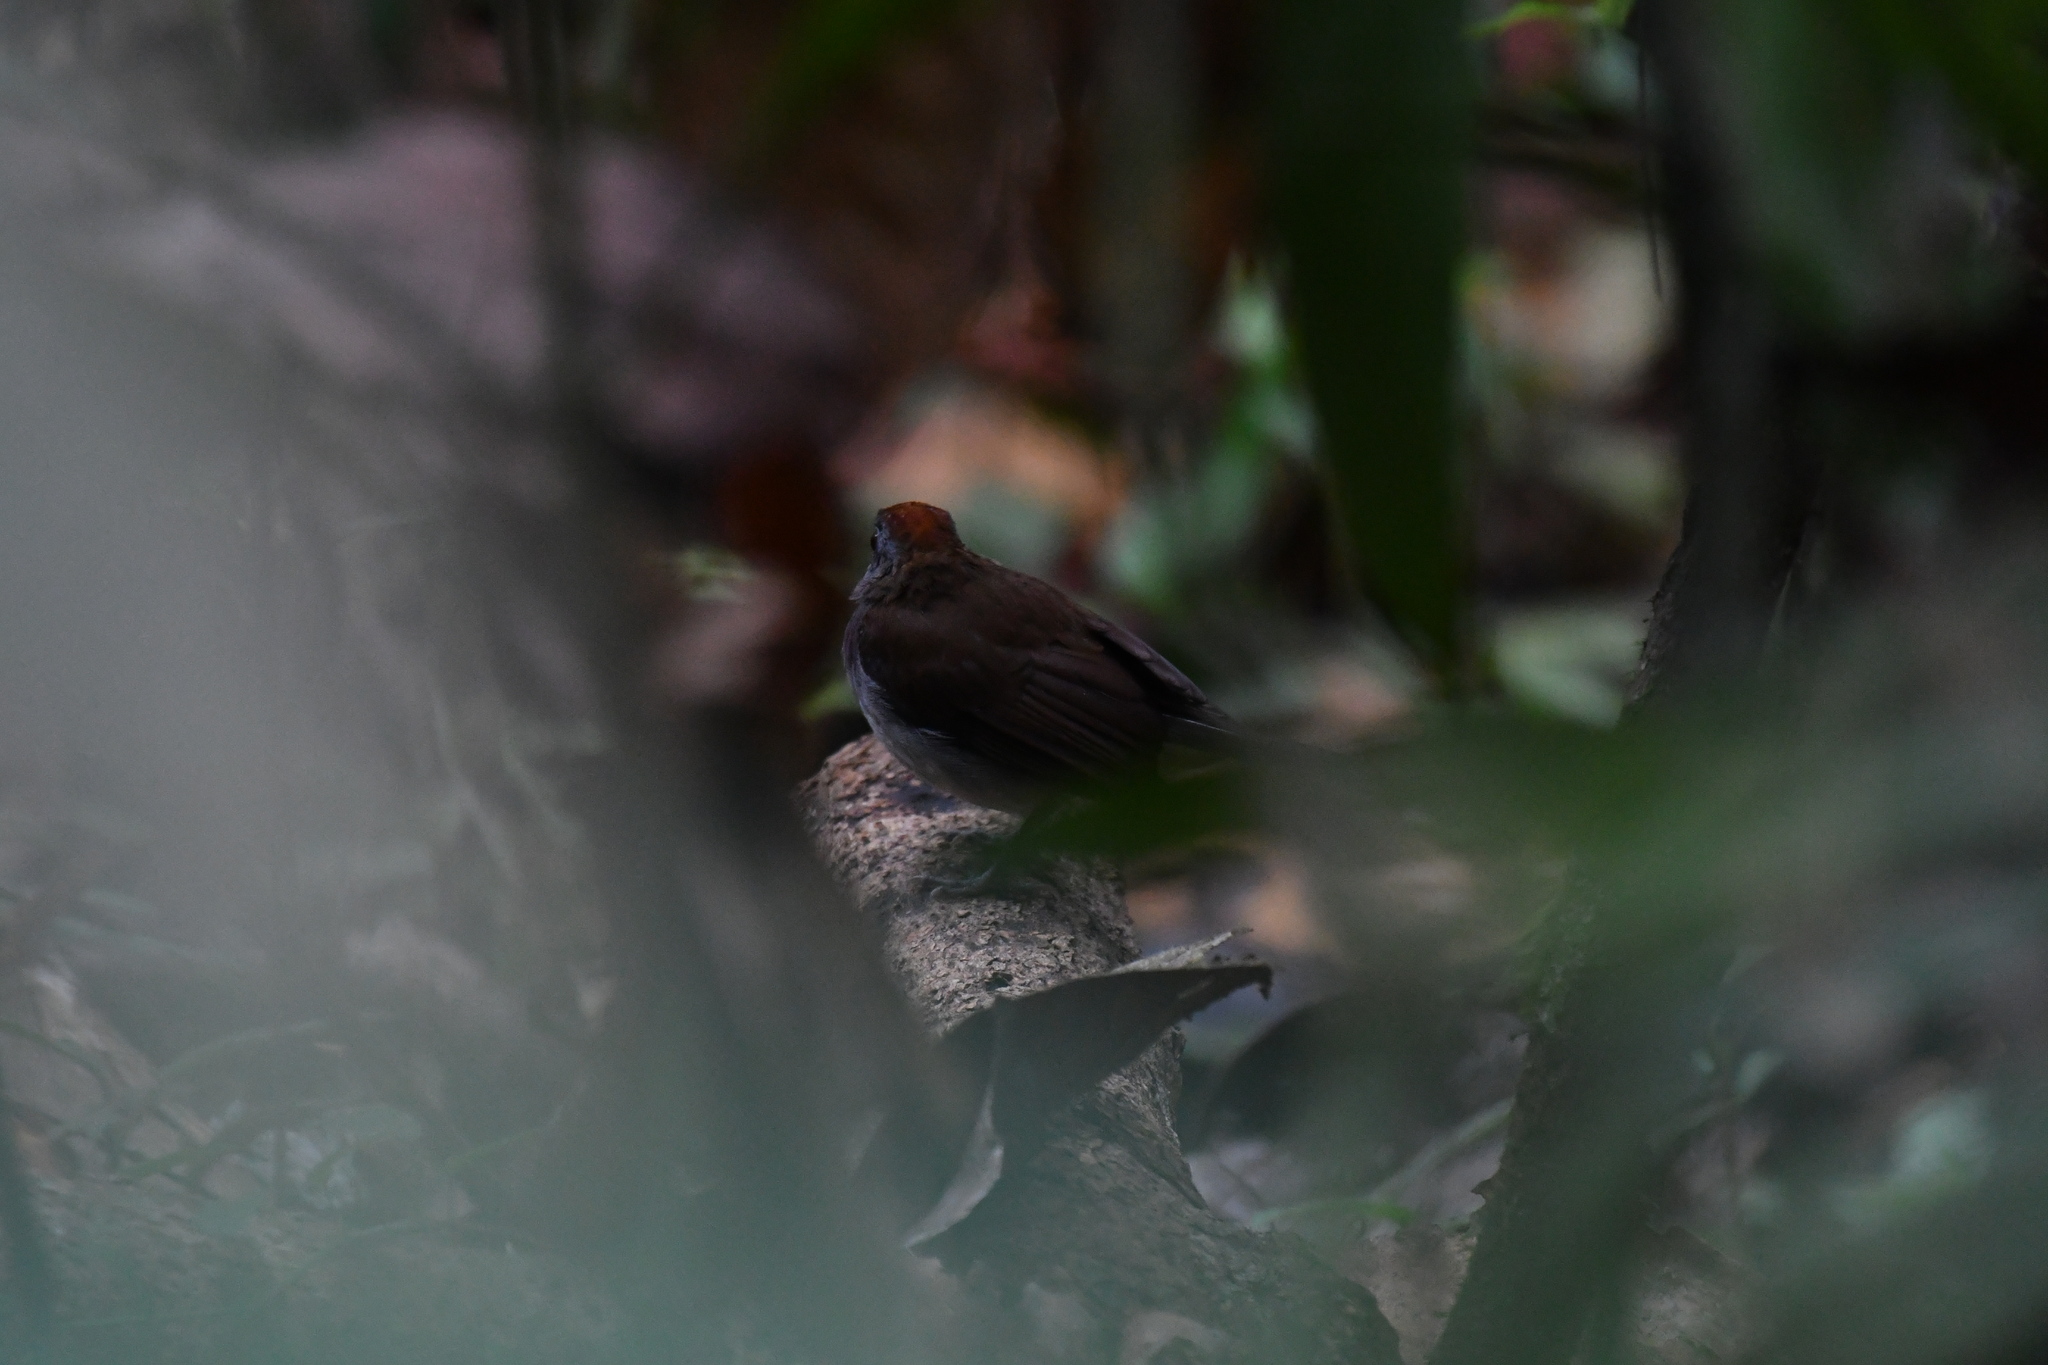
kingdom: Animalia
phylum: Chordata
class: Aves
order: Passeriformes
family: Turdidae
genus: Alethe
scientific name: Alethe diademata
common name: Fire-crested alethe
